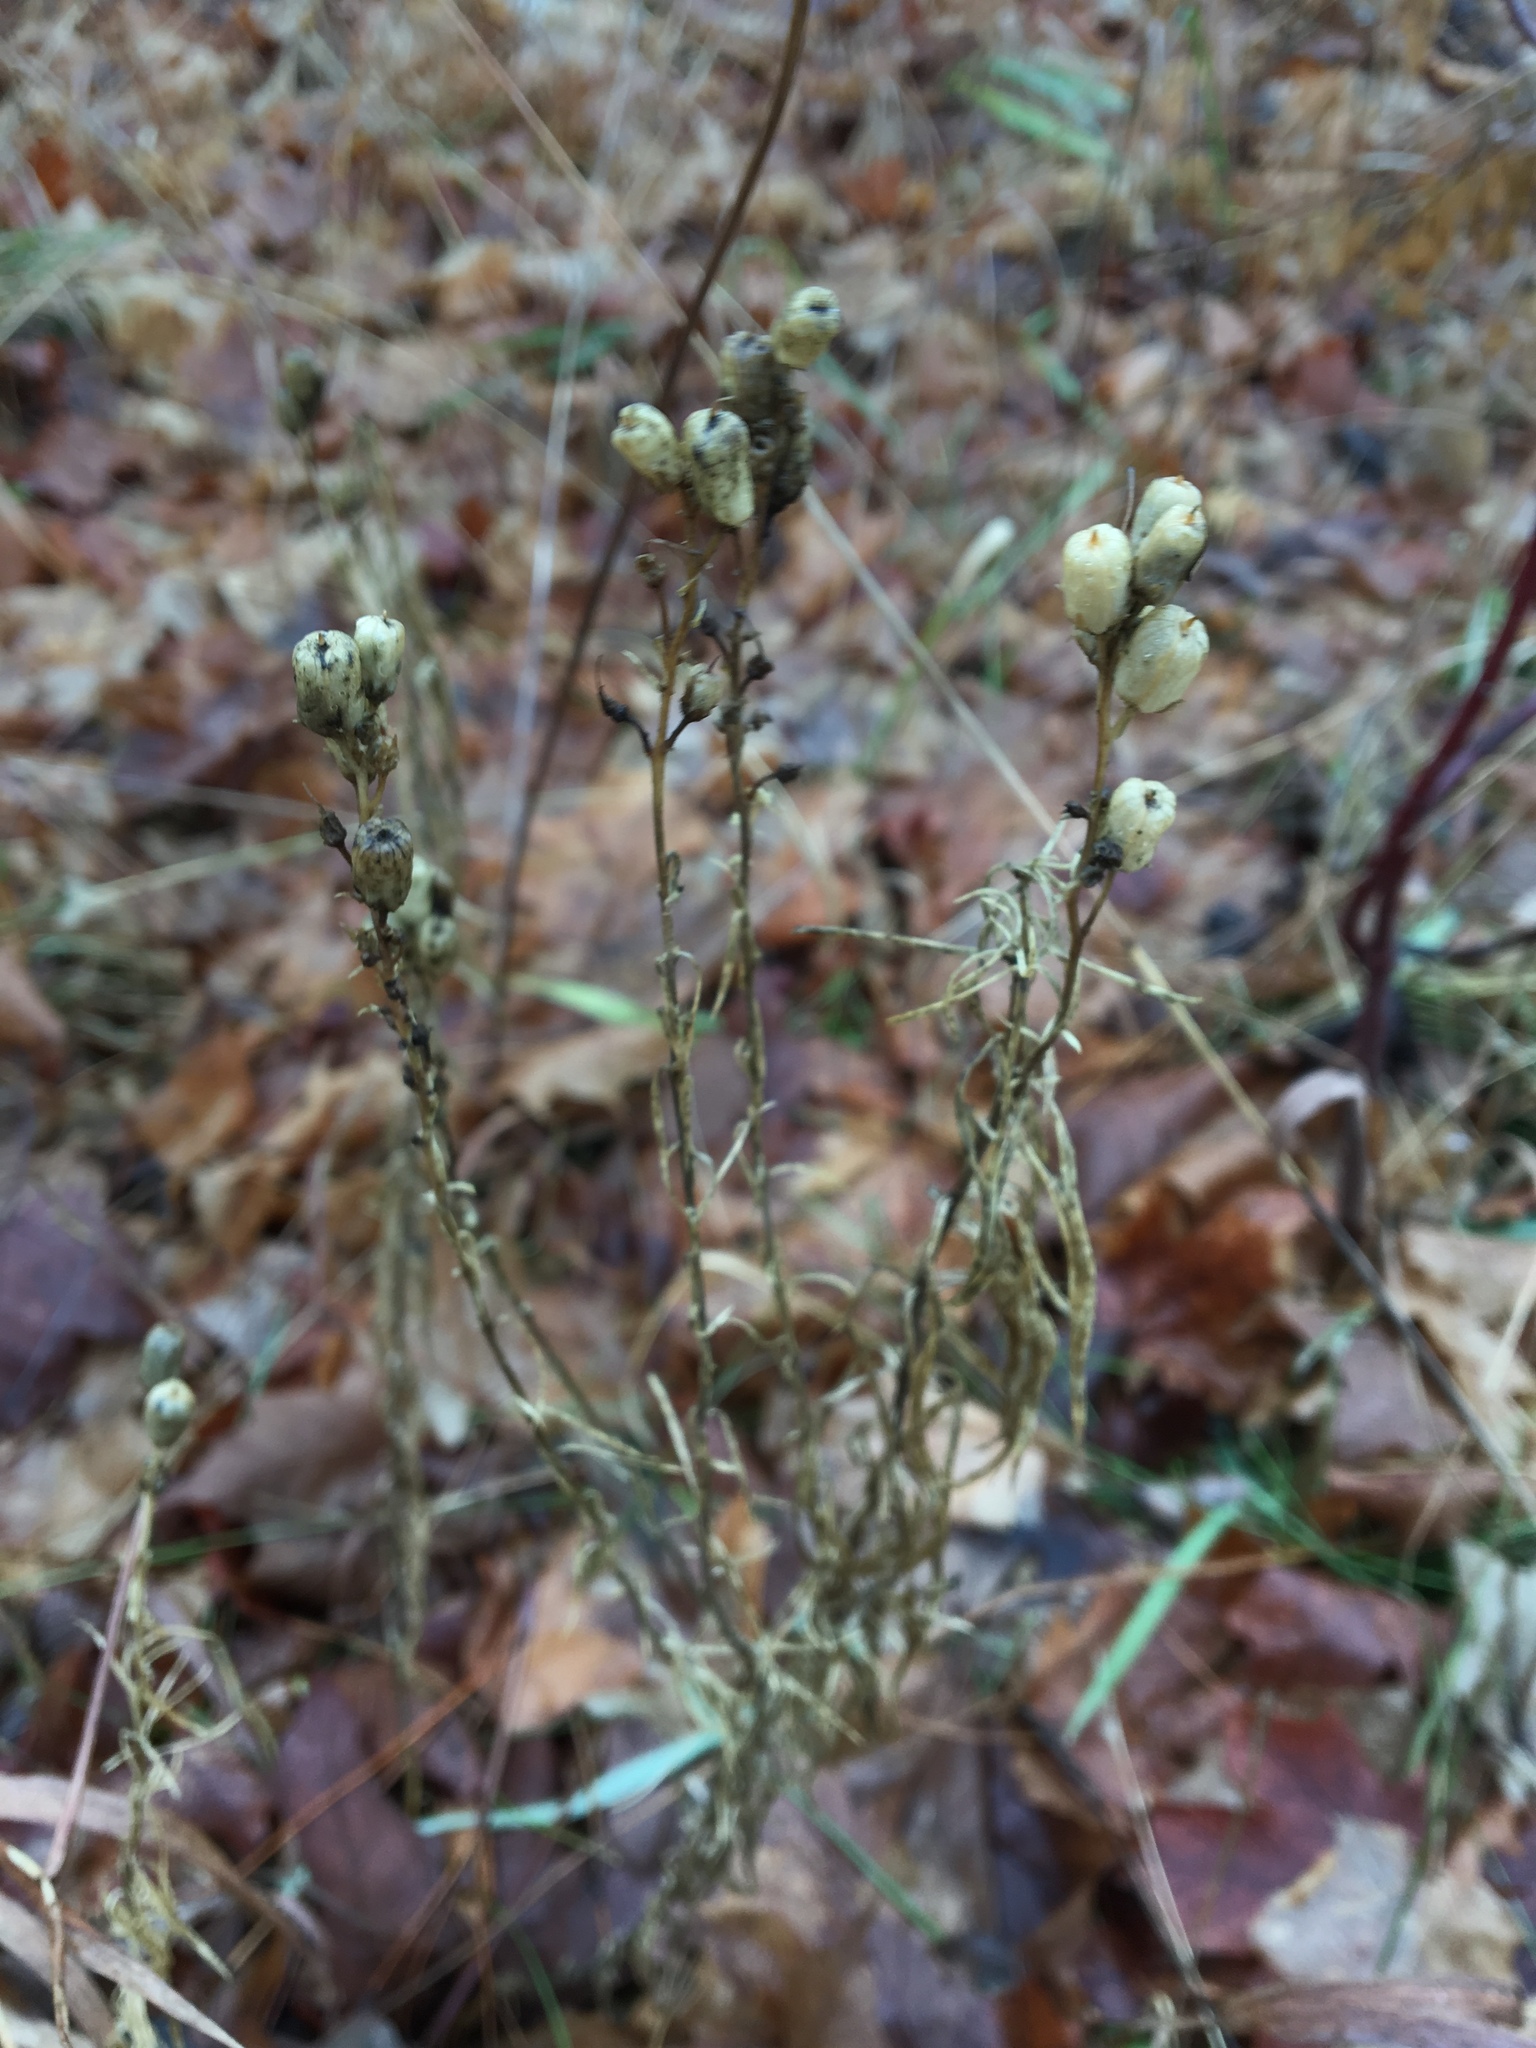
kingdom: Plantae
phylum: Tracheophyta
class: Magnoliopsida
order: Lamiales
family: Plantaginaceae
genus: Linaria
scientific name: Linaria vulgaris
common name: Butter and eggs
